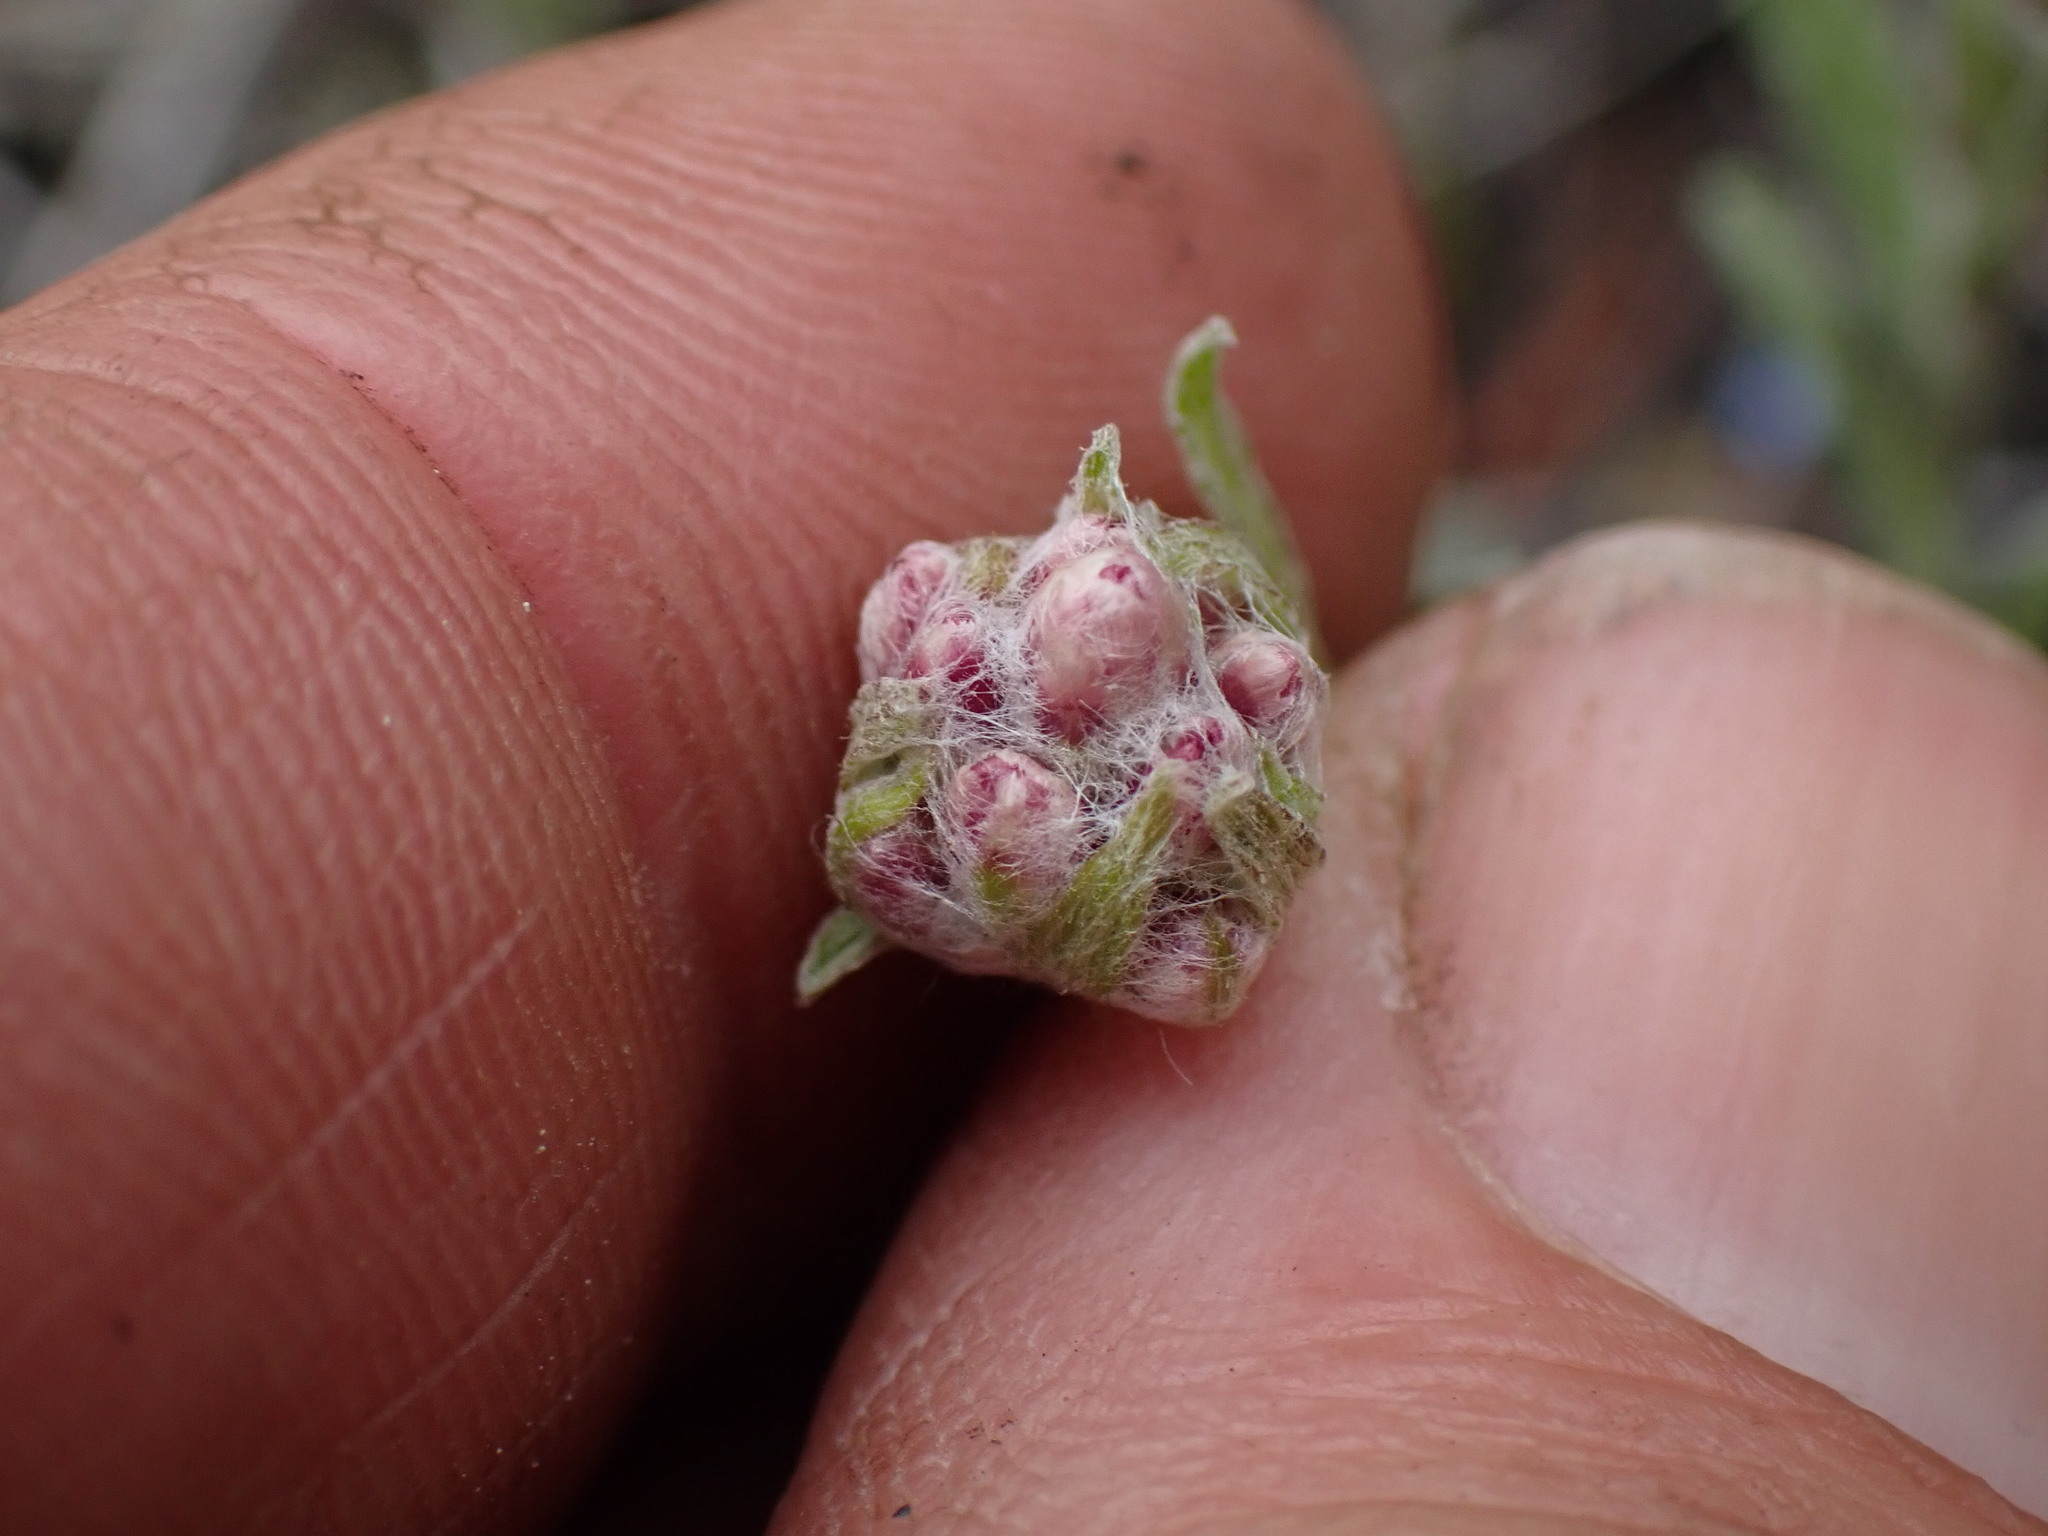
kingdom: Plantae
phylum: Tracheophyta
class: Magnoliopsida
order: Asterales
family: Asteraceae
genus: Antennaria
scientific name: Antennaria rosea
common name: Rosy pussytoes
